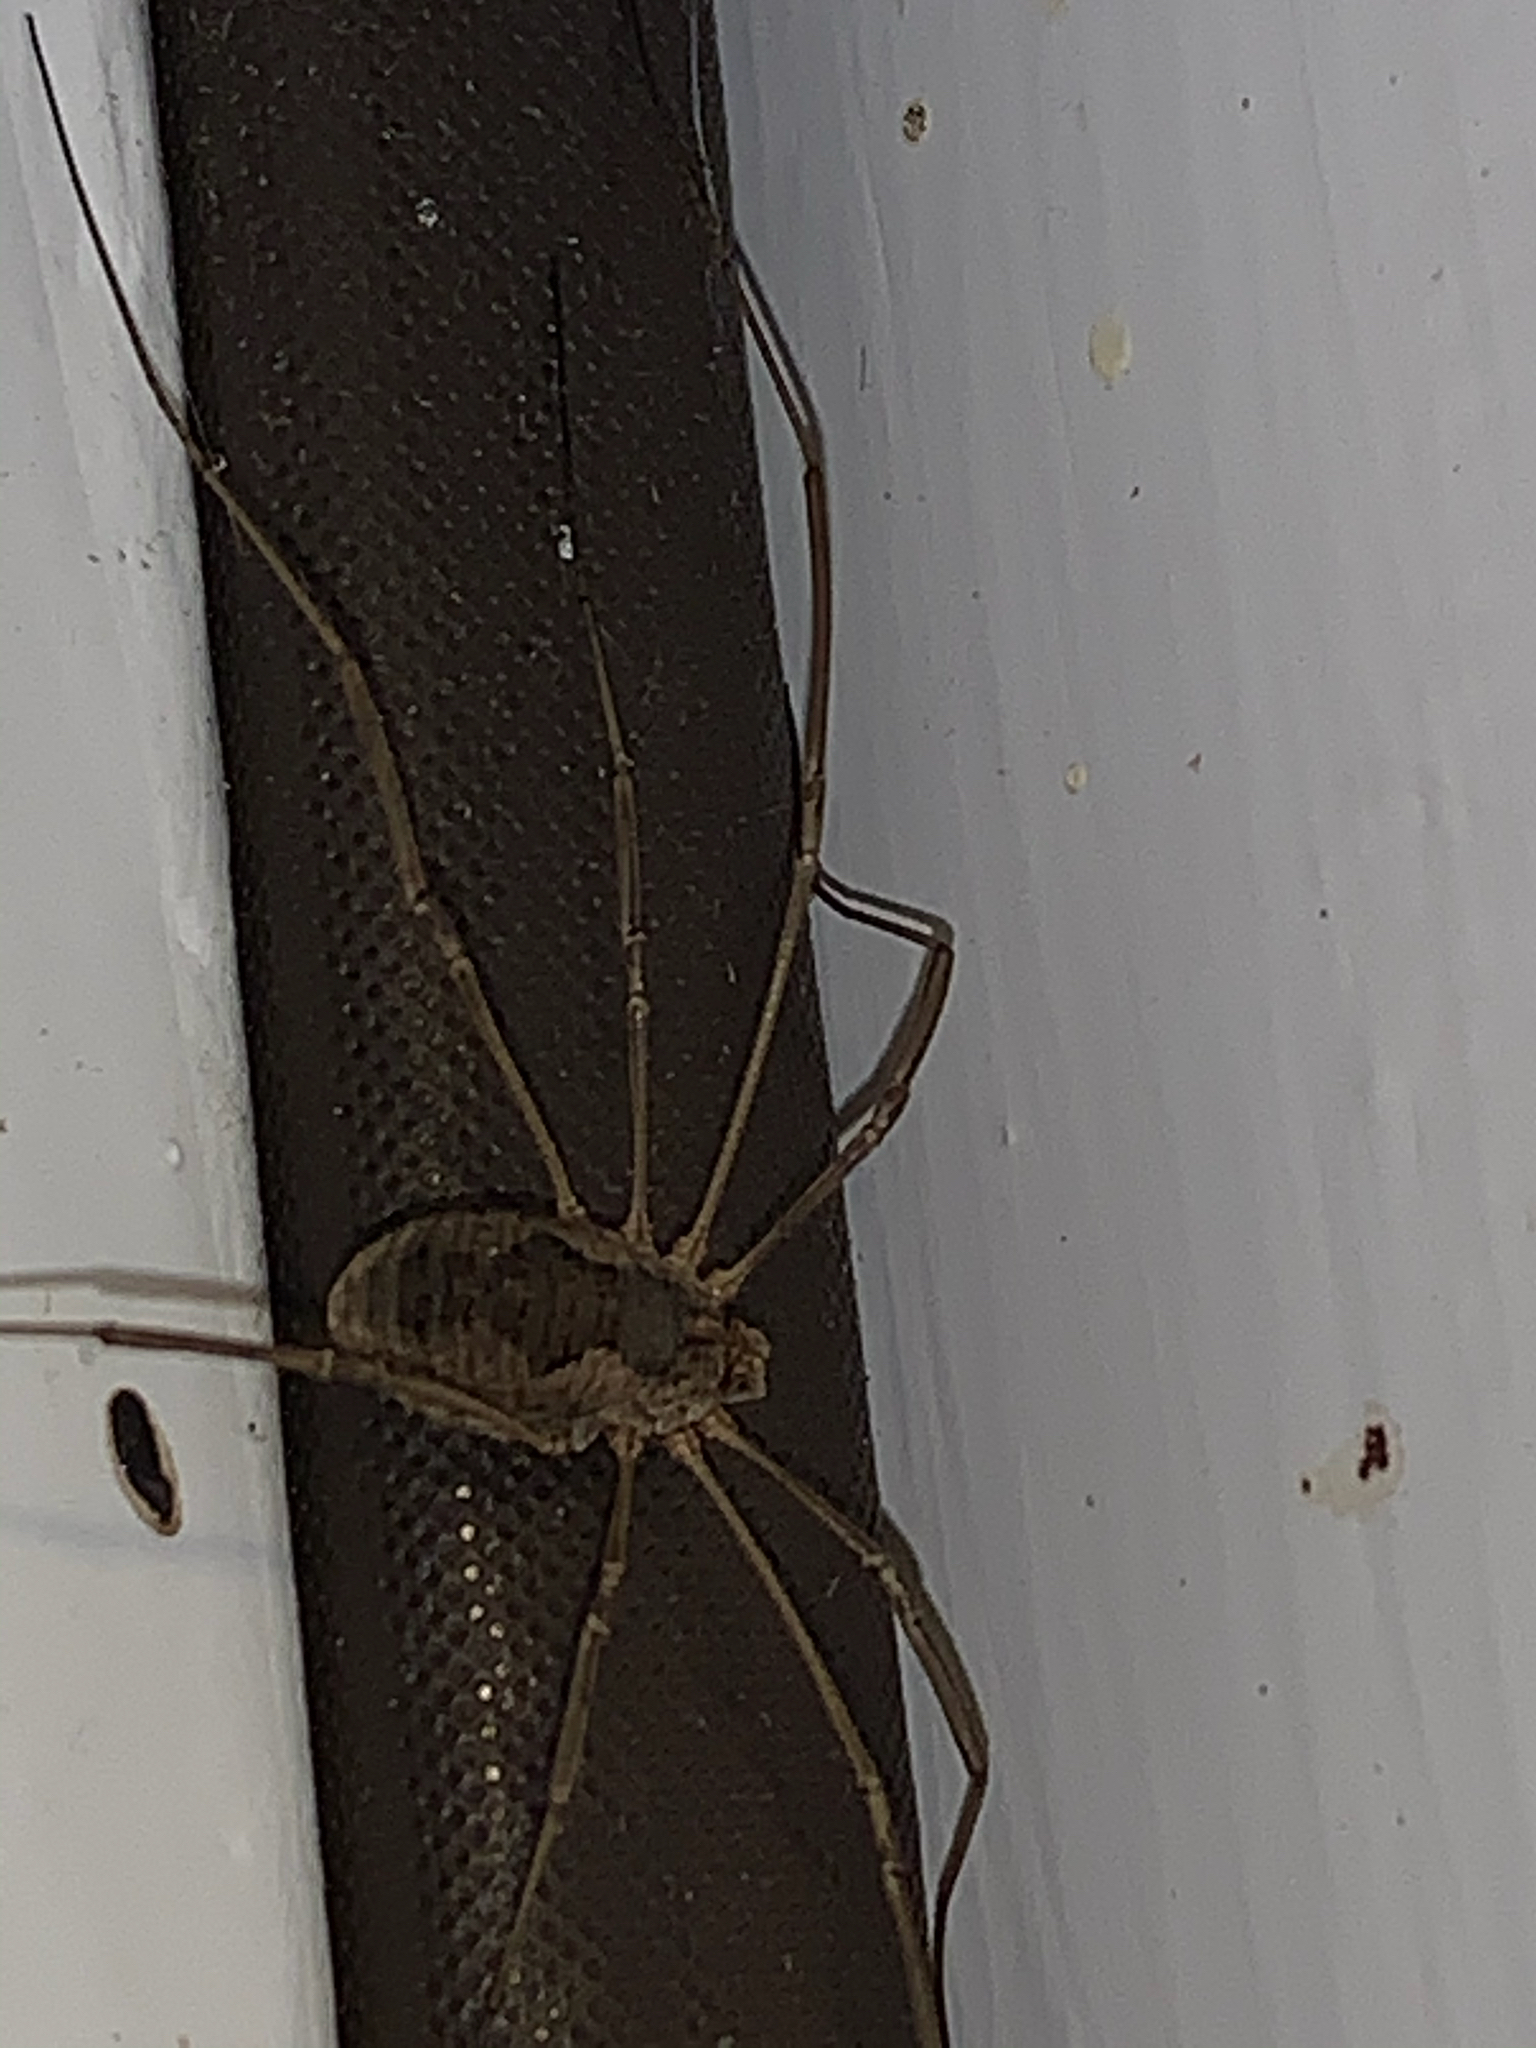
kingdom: Animalia
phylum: Arthropoda
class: Arachnida
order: Opiliones
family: Phalangiidae
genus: Phalangium
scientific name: Phalangium opilio
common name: Daddy longleg
